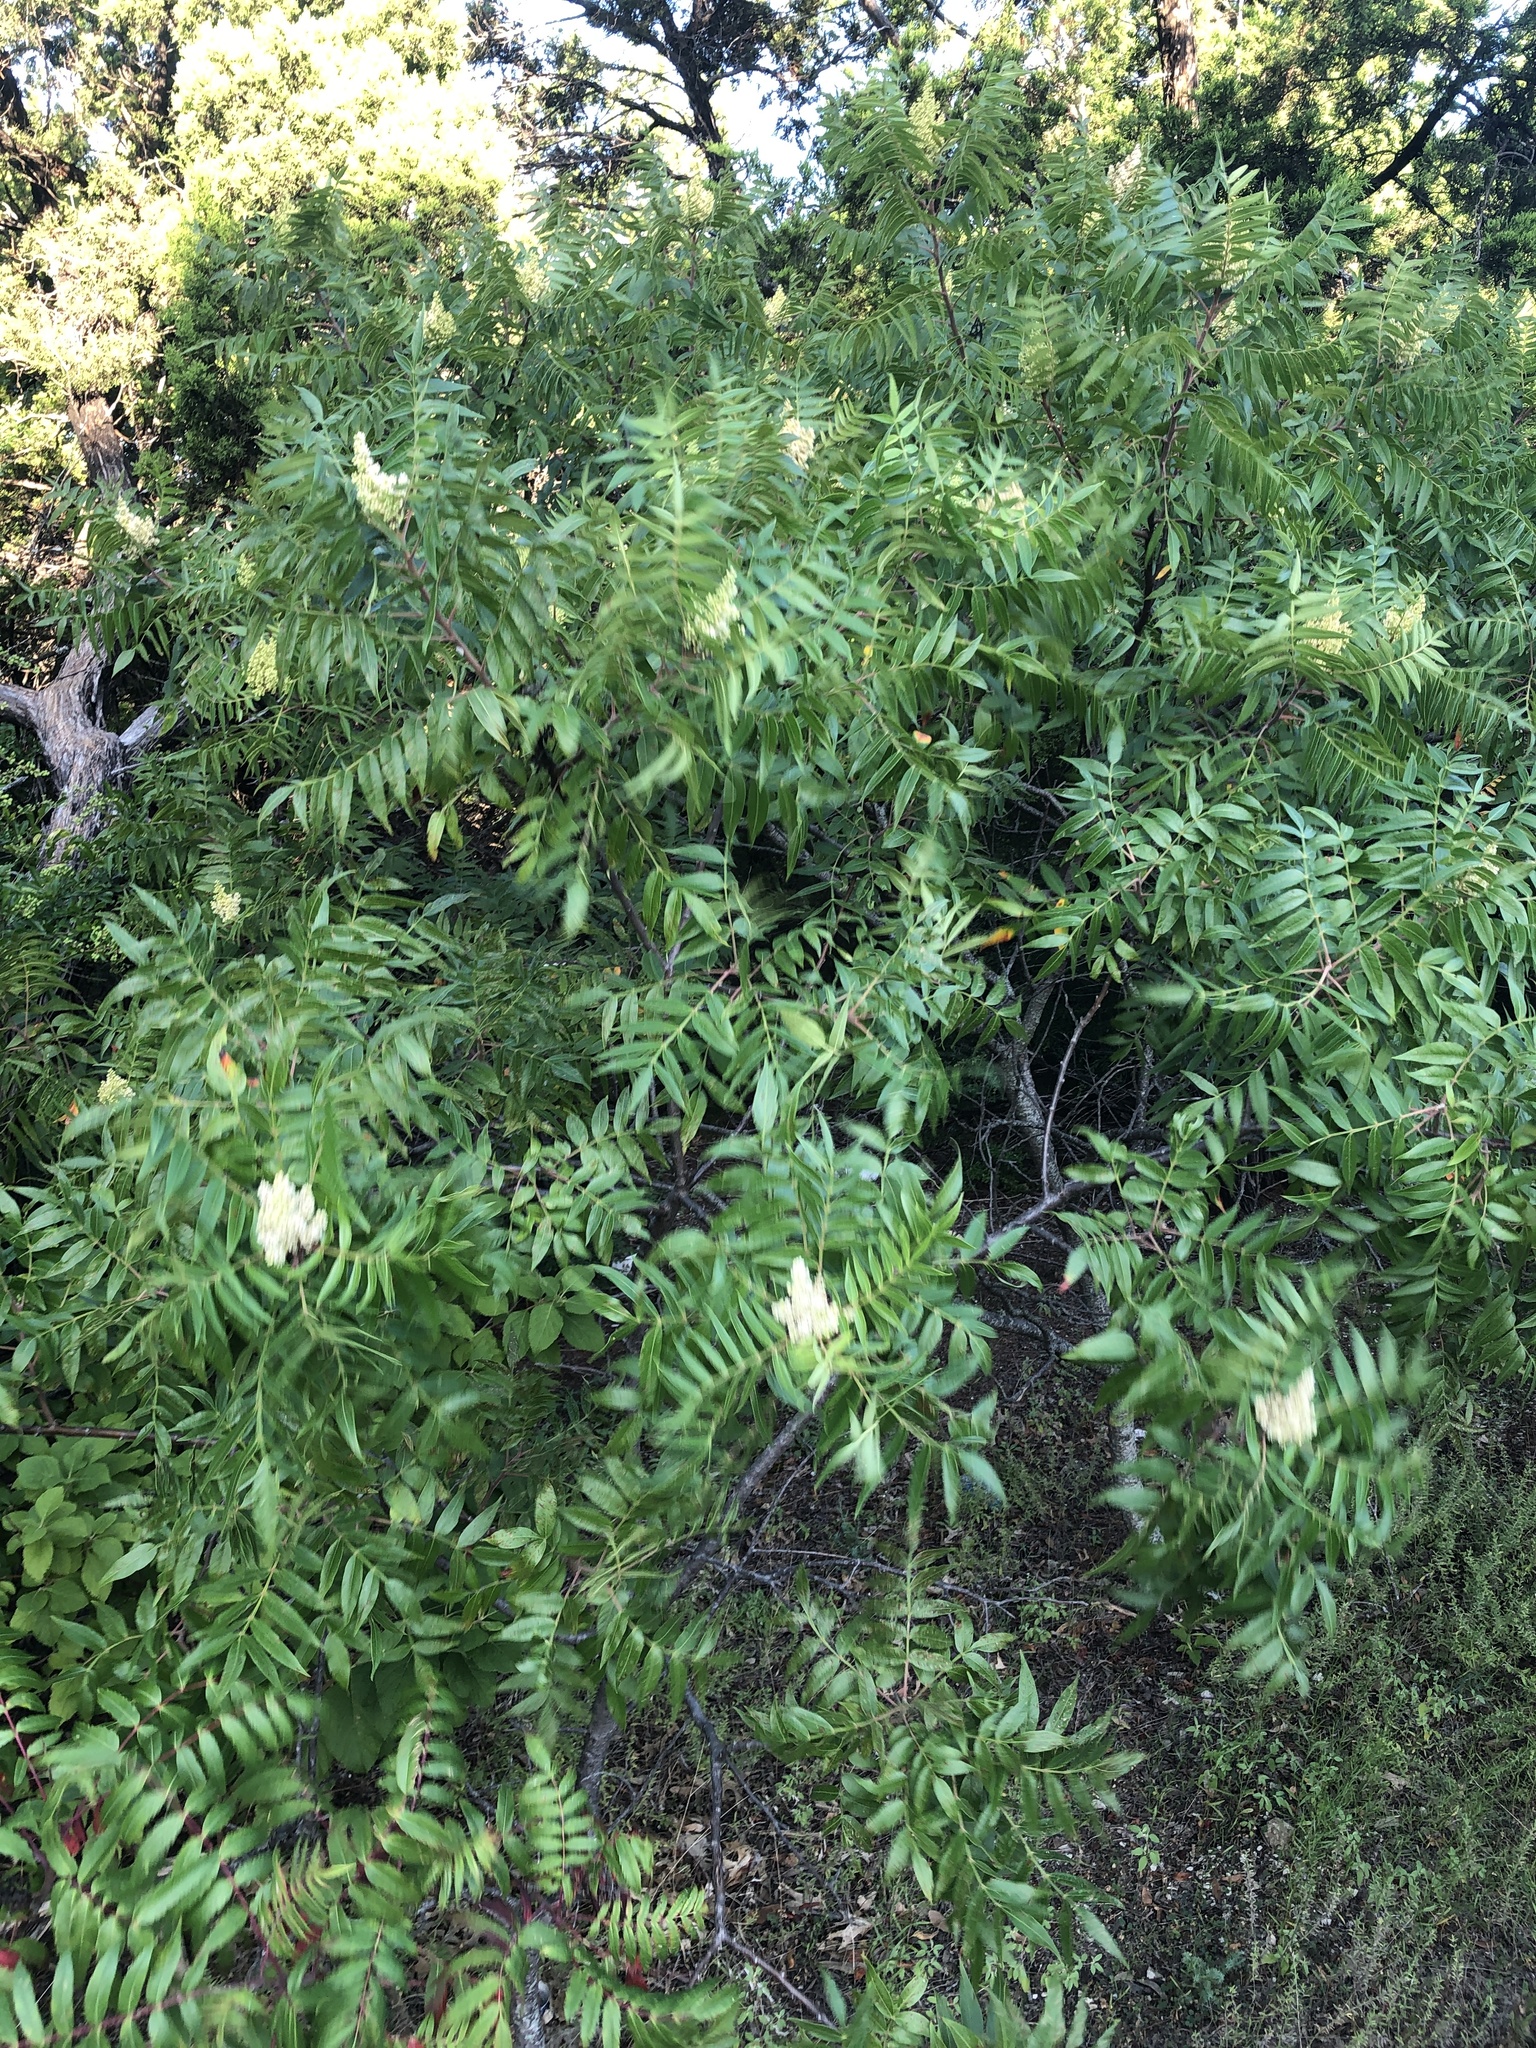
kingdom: Plantae
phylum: Tracheophyta
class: Magnoliopsida
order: Sapindales
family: Anacardiaceae
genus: Rhus
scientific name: Rhus lanceolata
